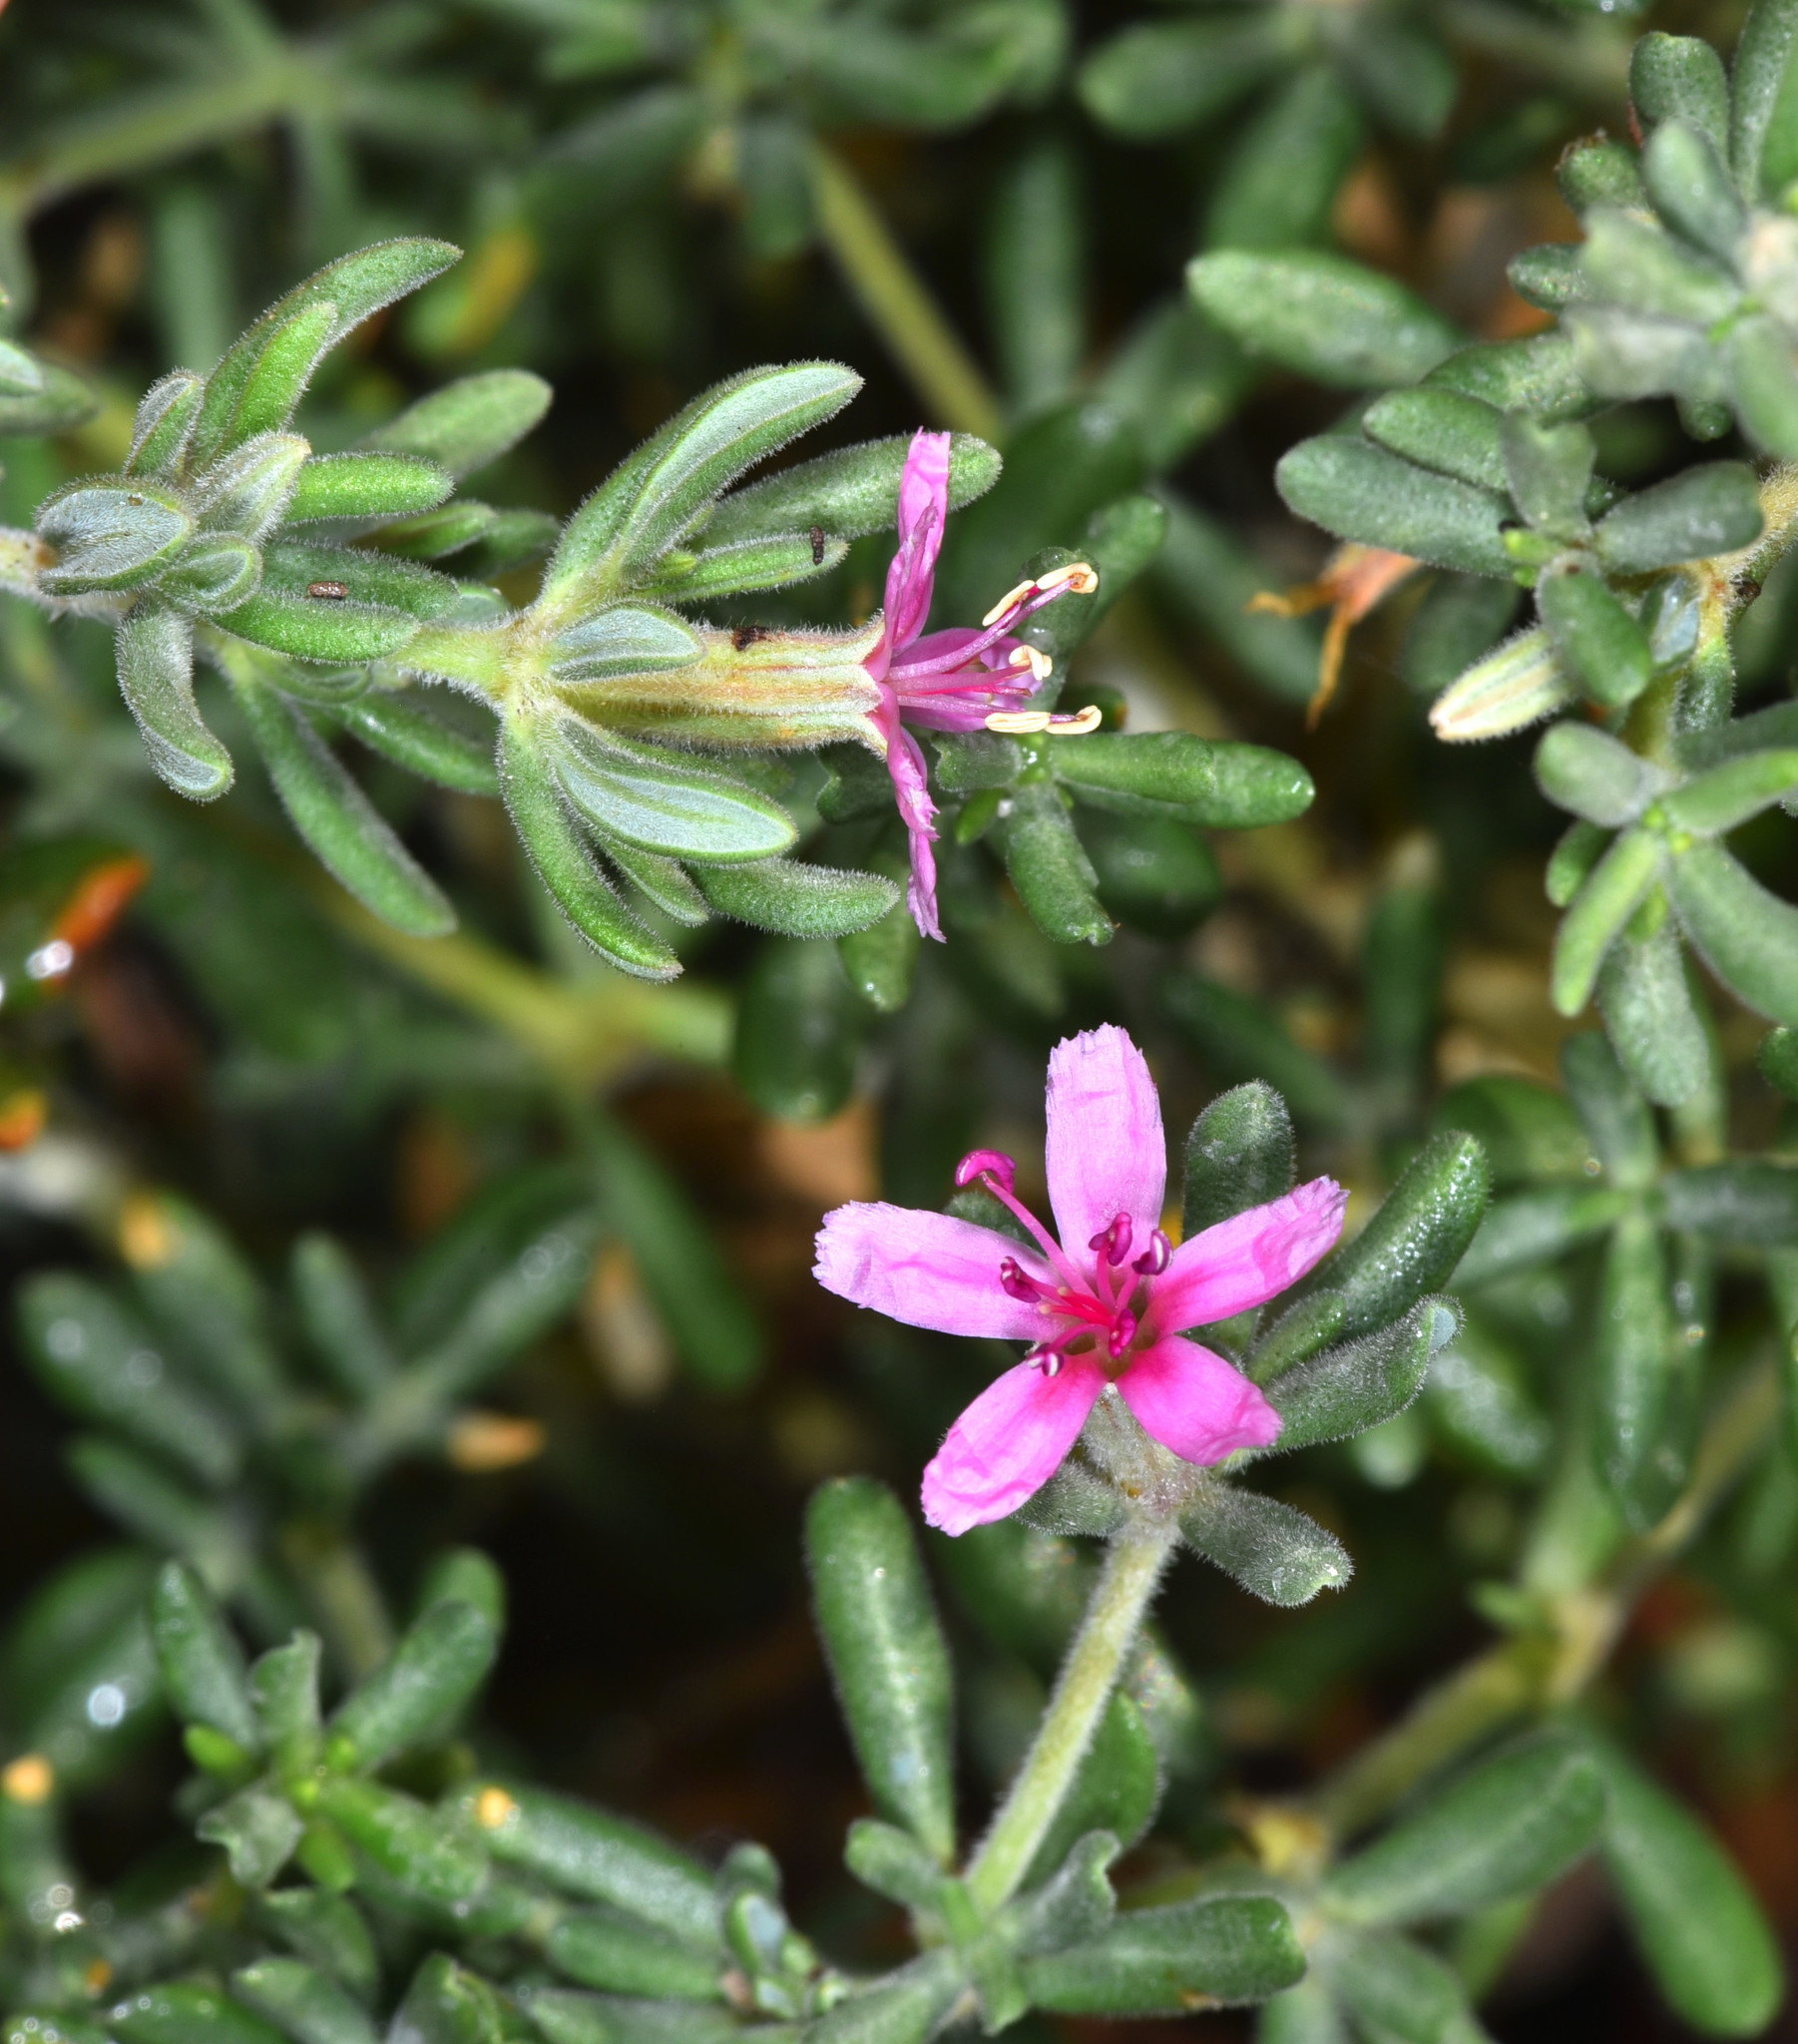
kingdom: Plantae
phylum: Tracheophyta
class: Magnoliopsida
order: Caryophyllales
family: Frankeniaceae
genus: Frankenia
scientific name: Frankenia salina
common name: Alkali seaheath
